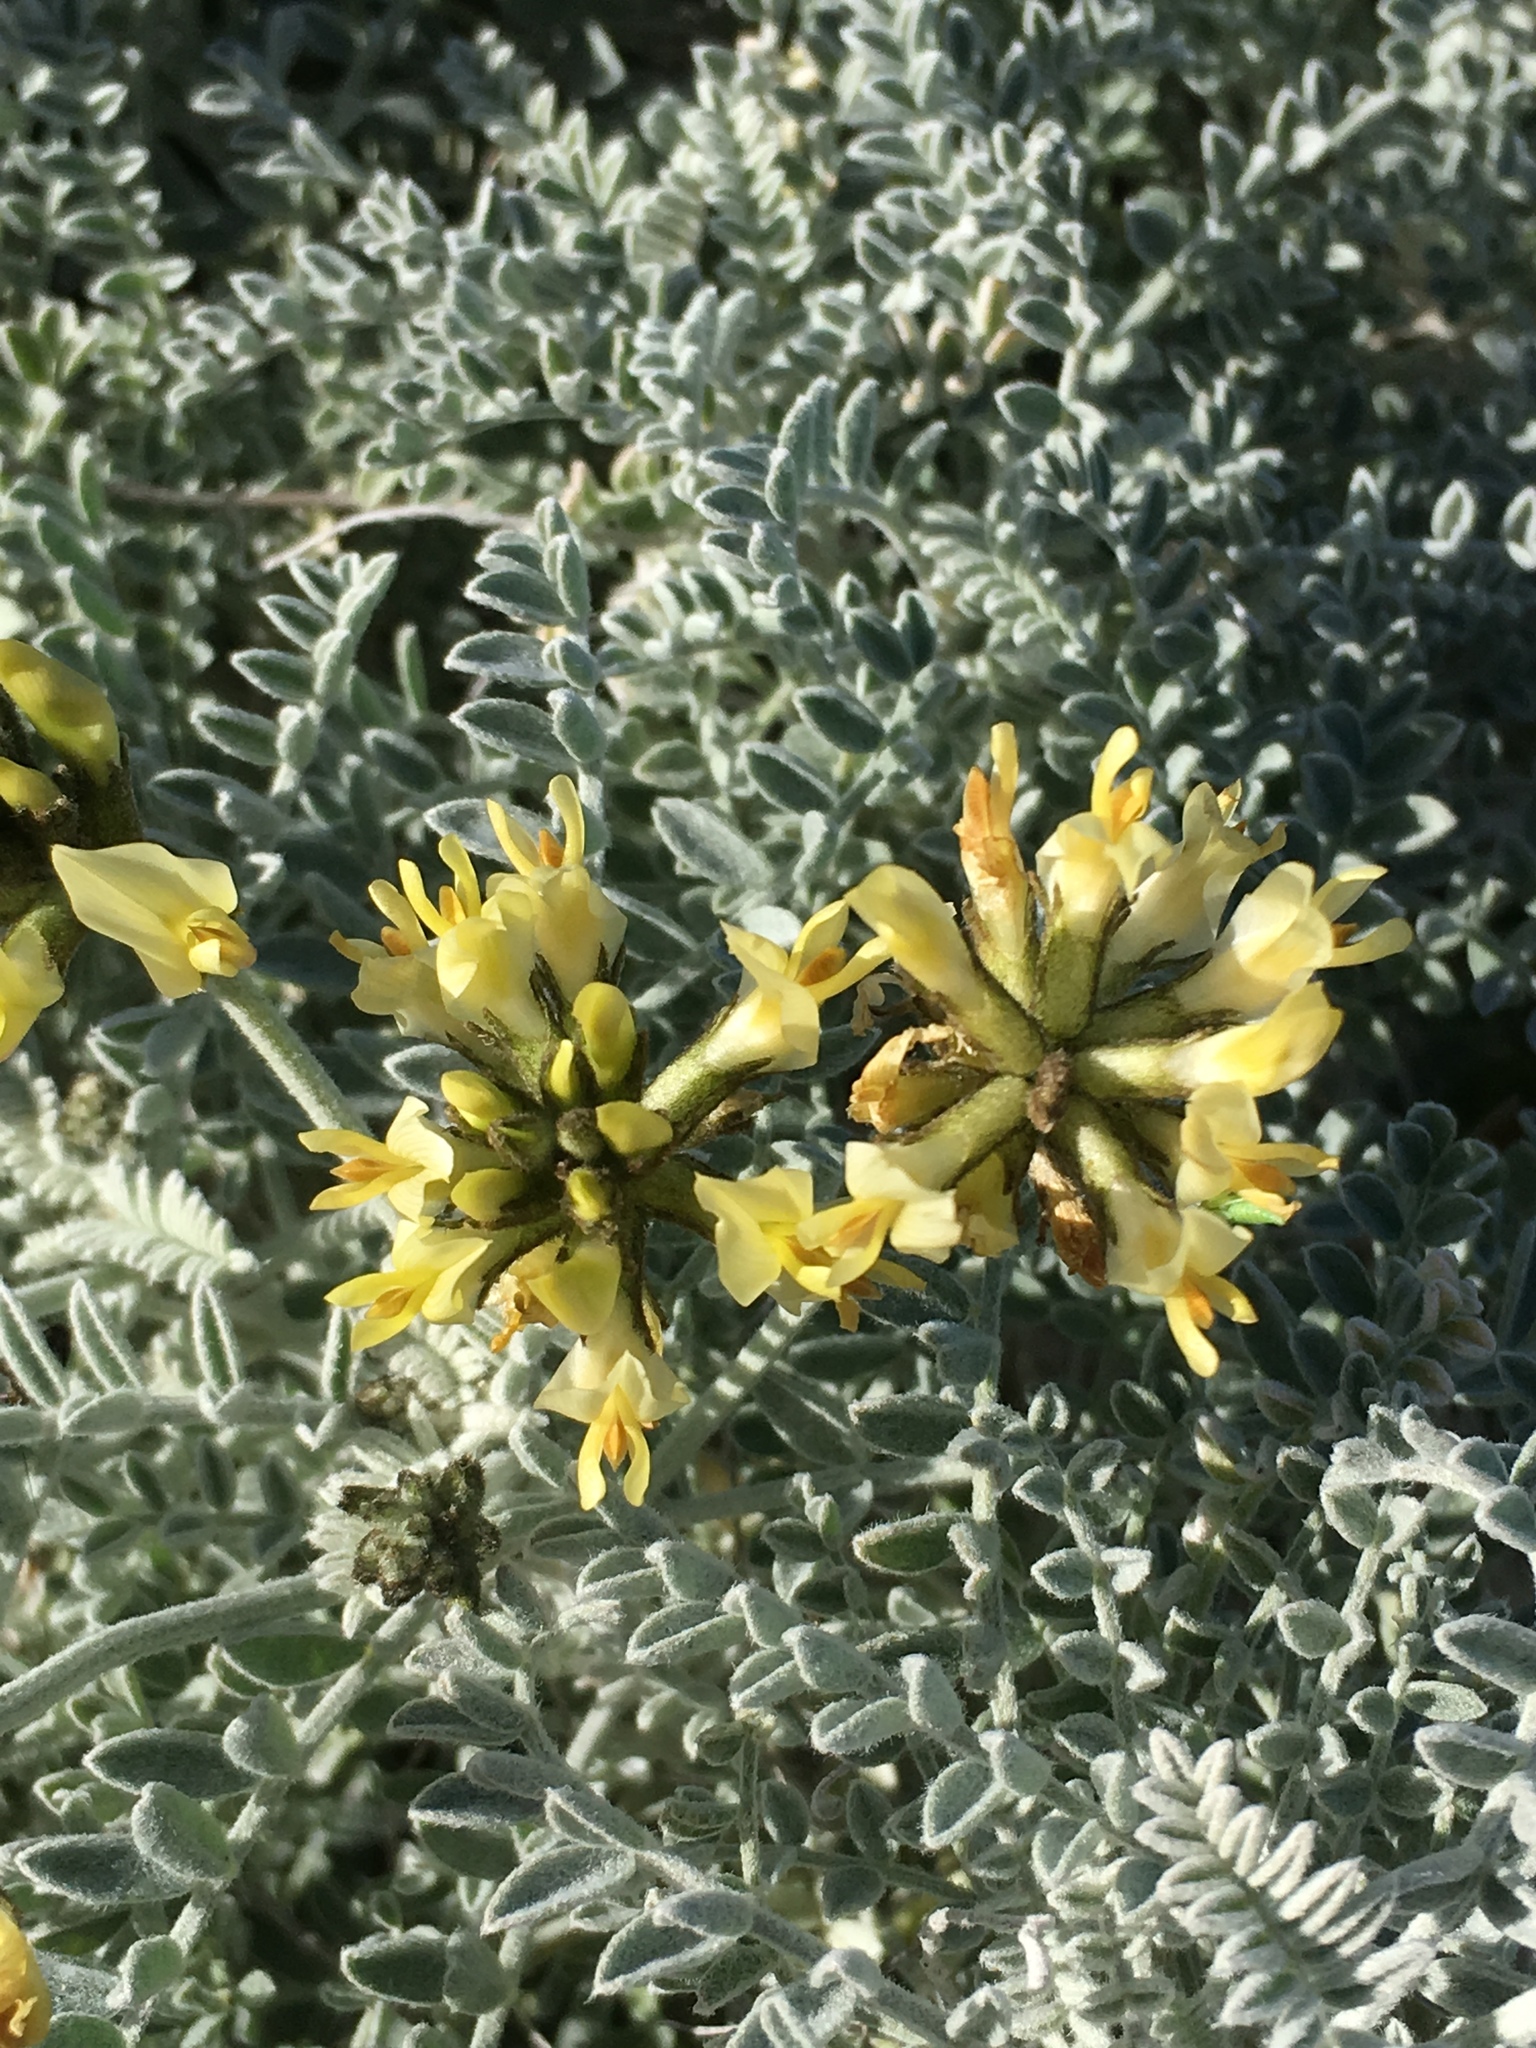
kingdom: Plantae
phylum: Tracheophyta
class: Magnoliopsida
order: Fabales
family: Fabaceae
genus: Astragalus
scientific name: Astragalus traskiae
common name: Trask's milk-vetch
